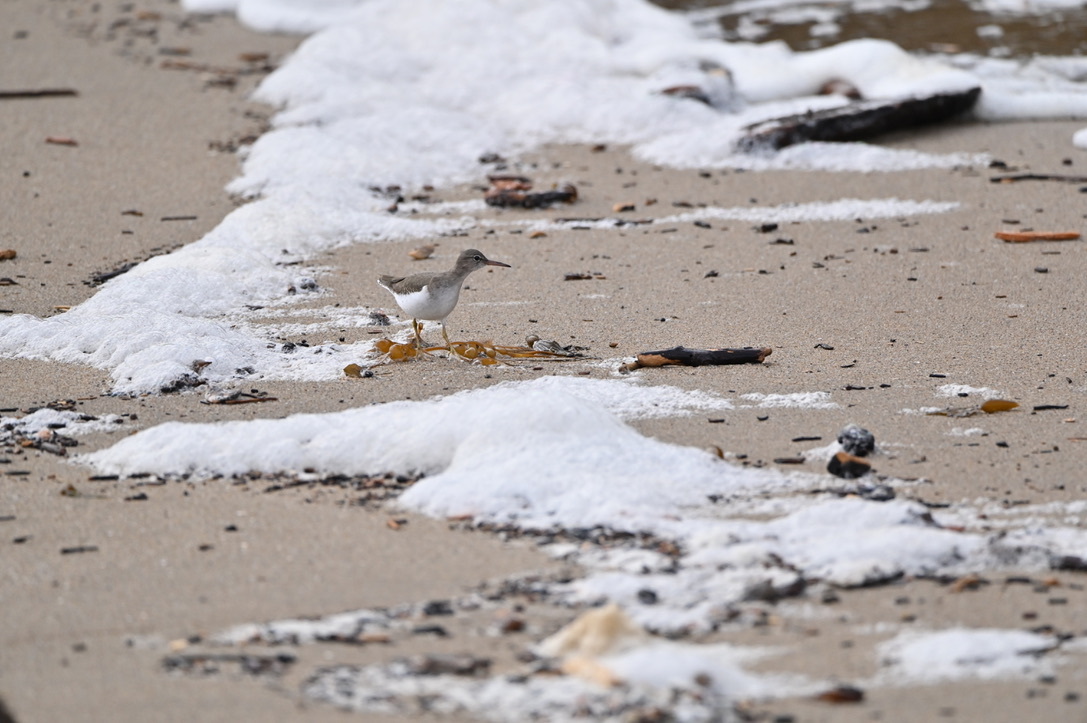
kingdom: Animalia
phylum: Chordata
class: Aves
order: Charadriiformes
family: Scolopacidae
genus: Actitis
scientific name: Actitis macularius
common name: Spotted sandpiper
